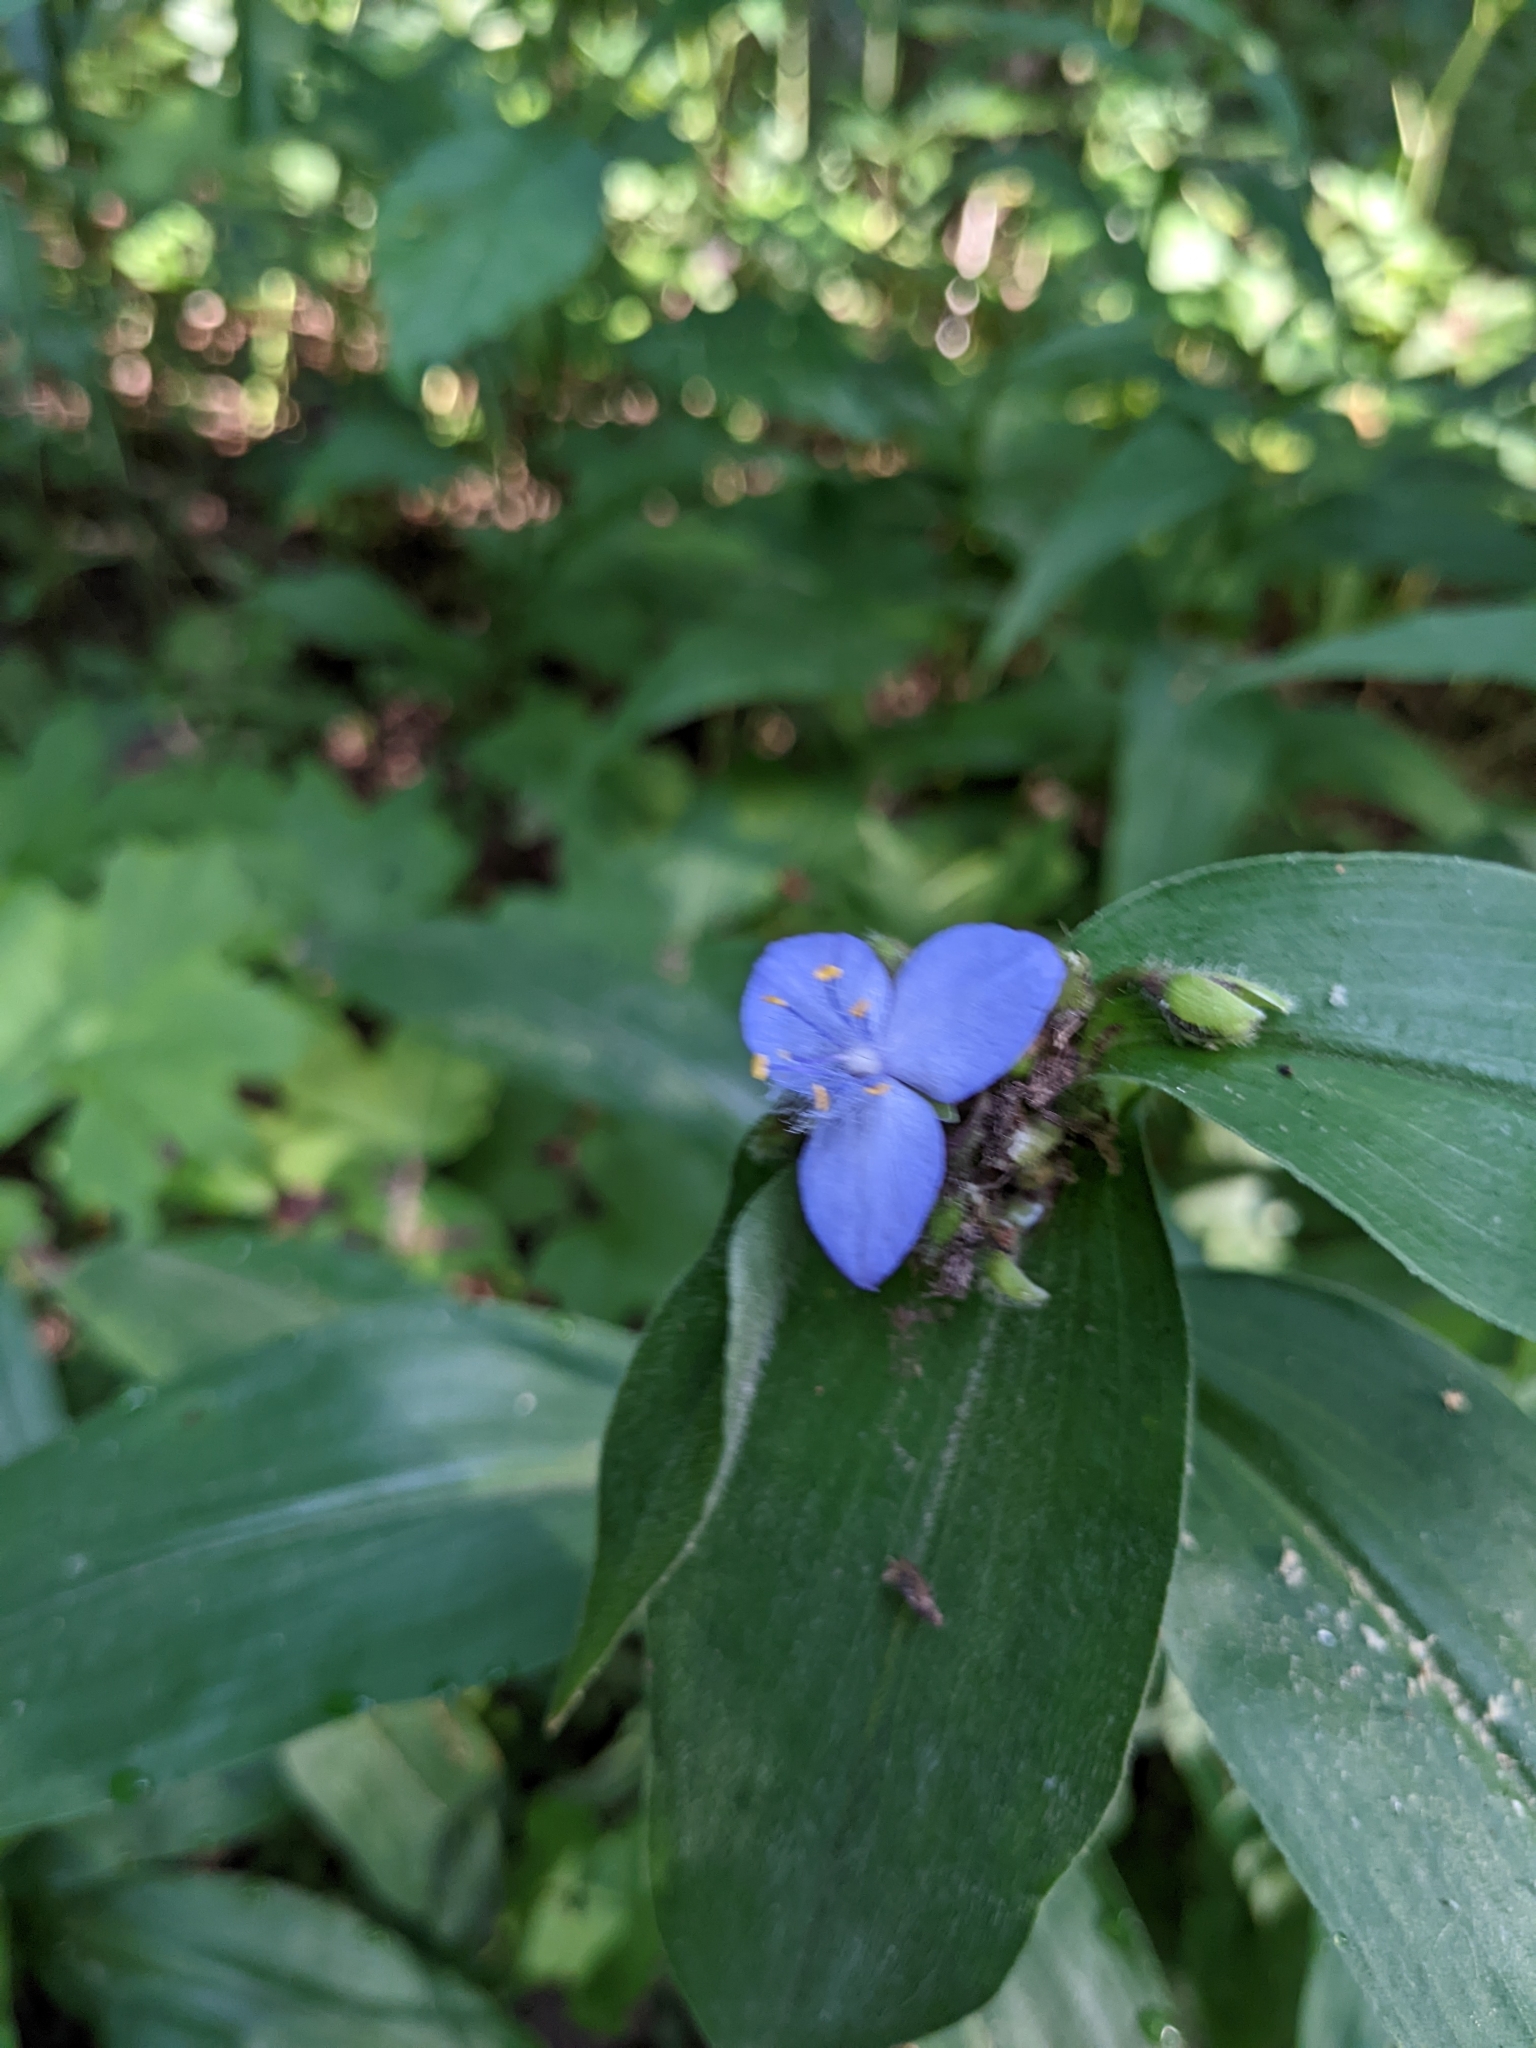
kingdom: Plantae
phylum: Tracheophyta
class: Liliopsida
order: Commelinales
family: Commelinaceae
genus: Tradescantia
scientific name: Tradescantia subaspera
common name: Wide-leaf spiderwort
